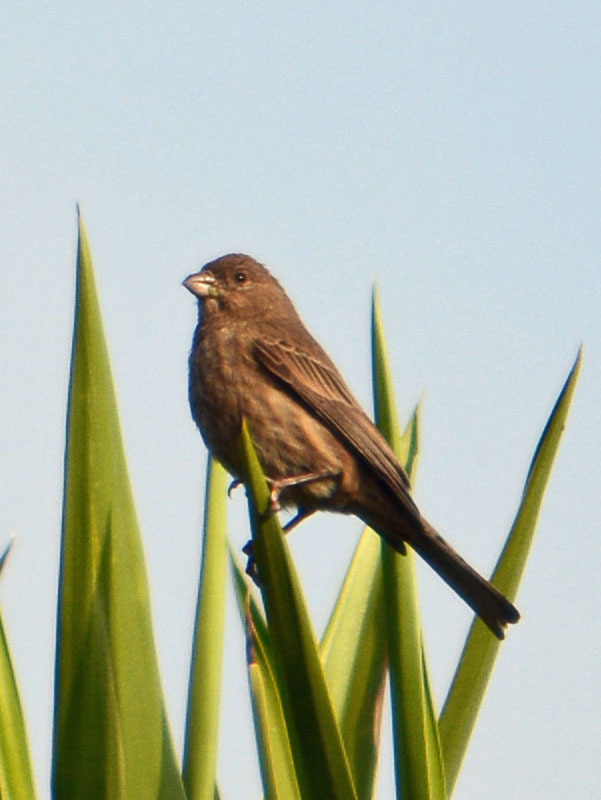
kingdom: Animalia
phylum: Chordata
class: Aves
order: Passeriformes
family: Fringillidae
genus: Haemorhous
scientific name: Haemorhous mexicanus
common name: House finch
